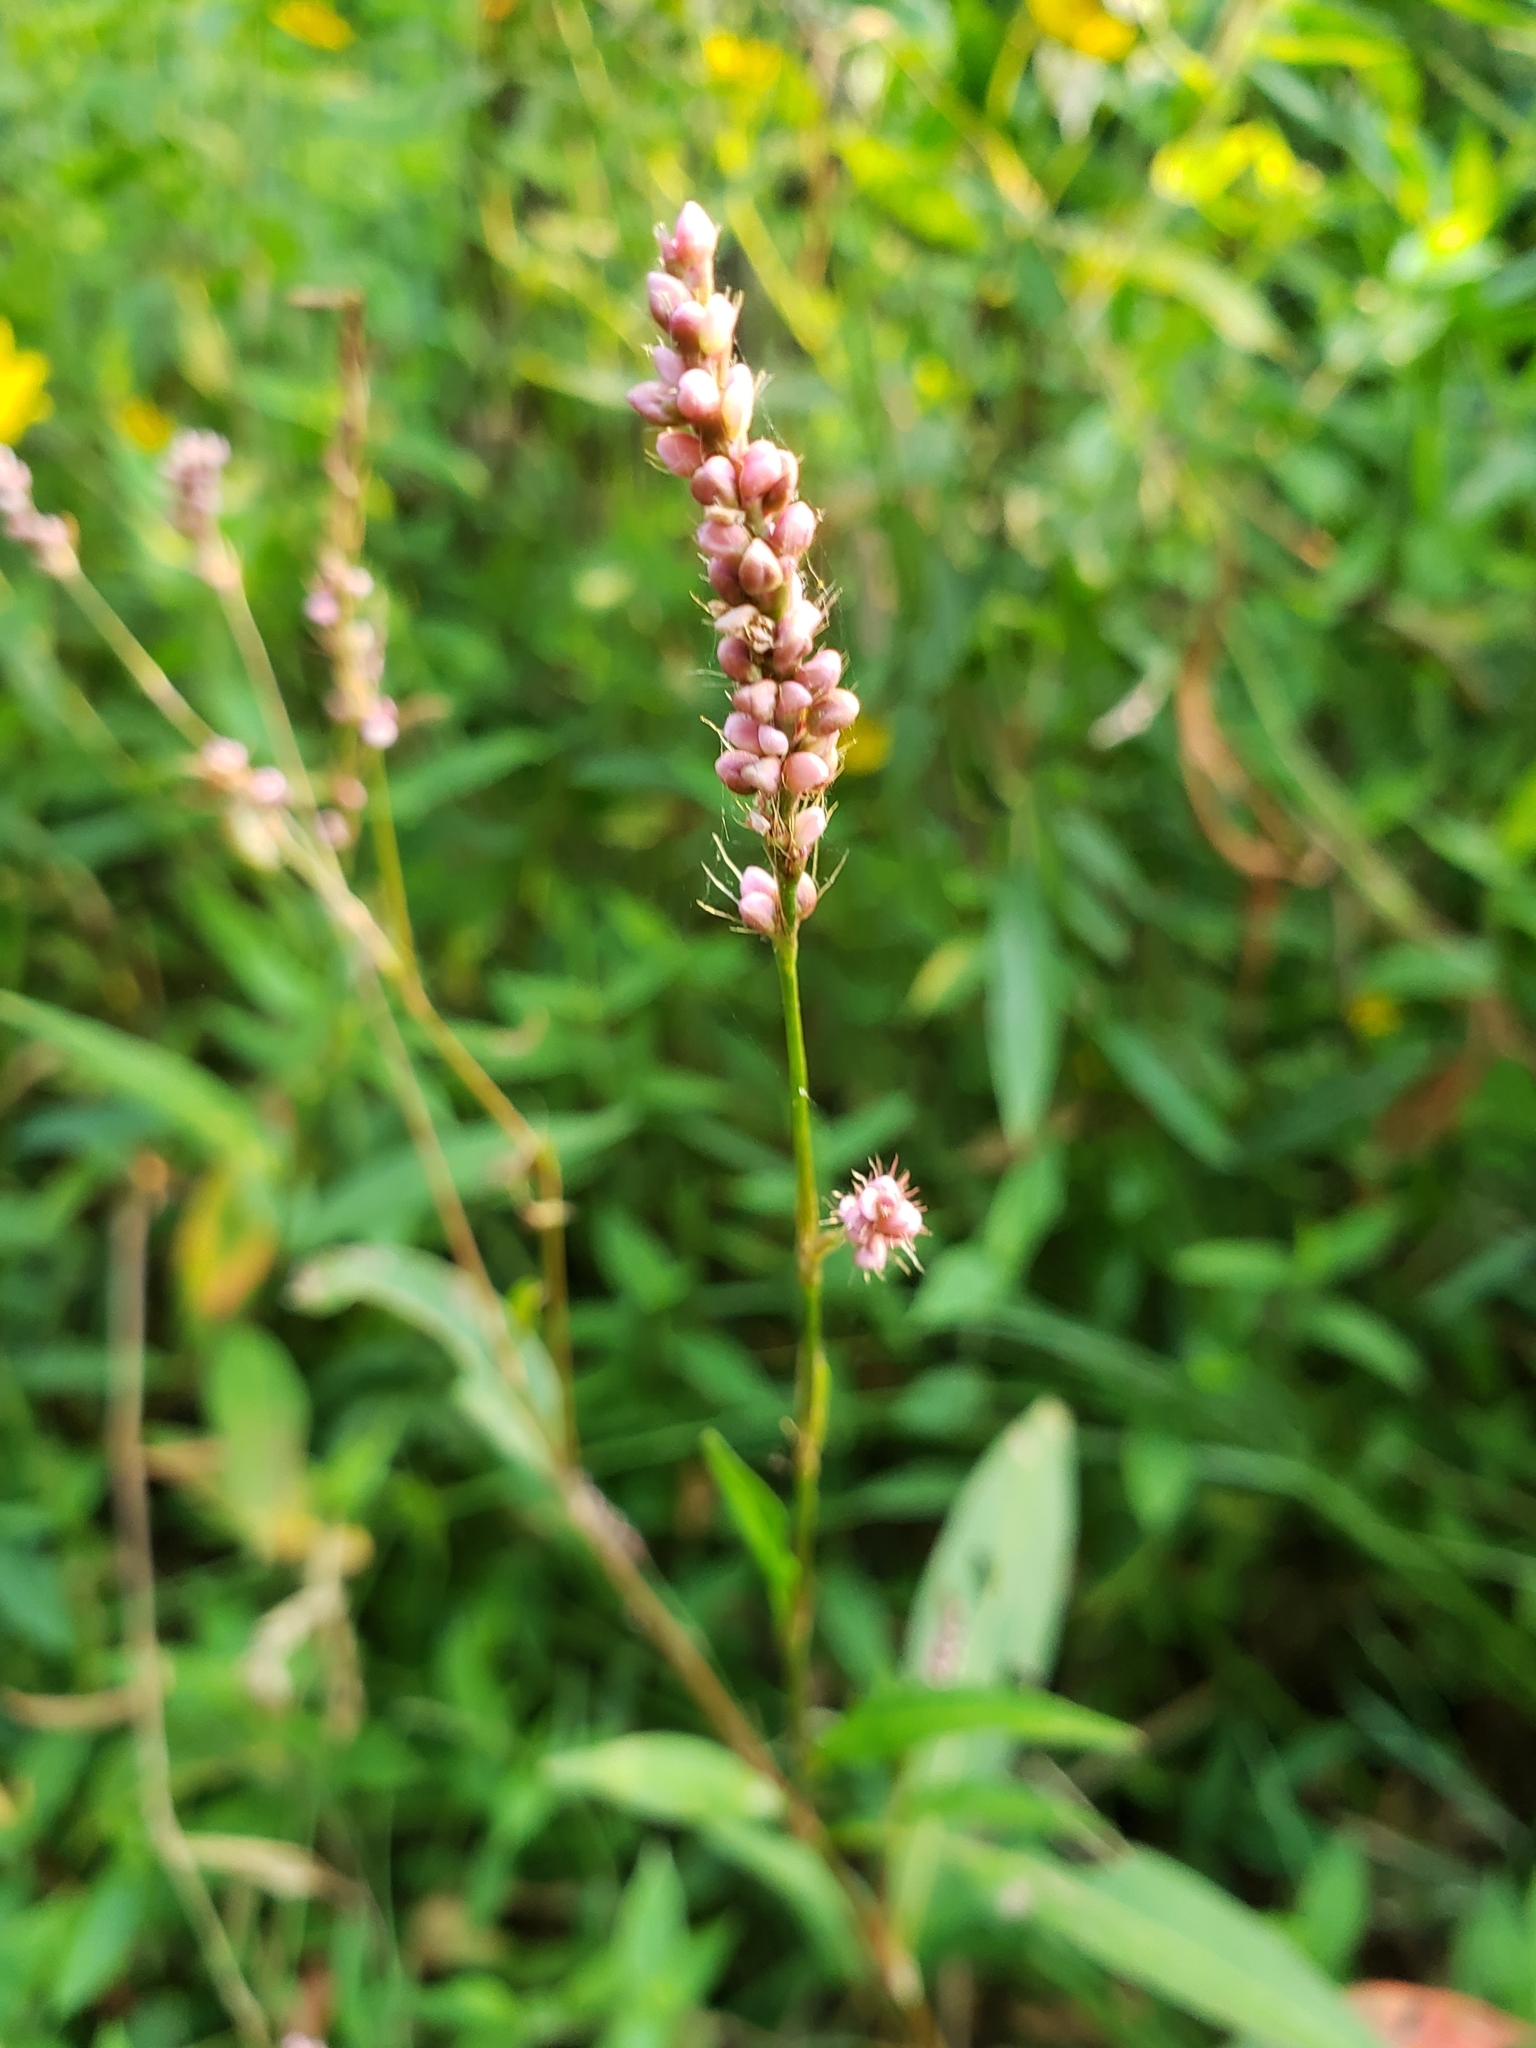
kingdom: Plantae
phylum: Tracheophyta
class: Magnoliopsida
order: Caryophyllales
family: Polygonaceae
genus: Persicaria
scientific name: Persicaria longiseta
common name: Bristly lady's-thumb
